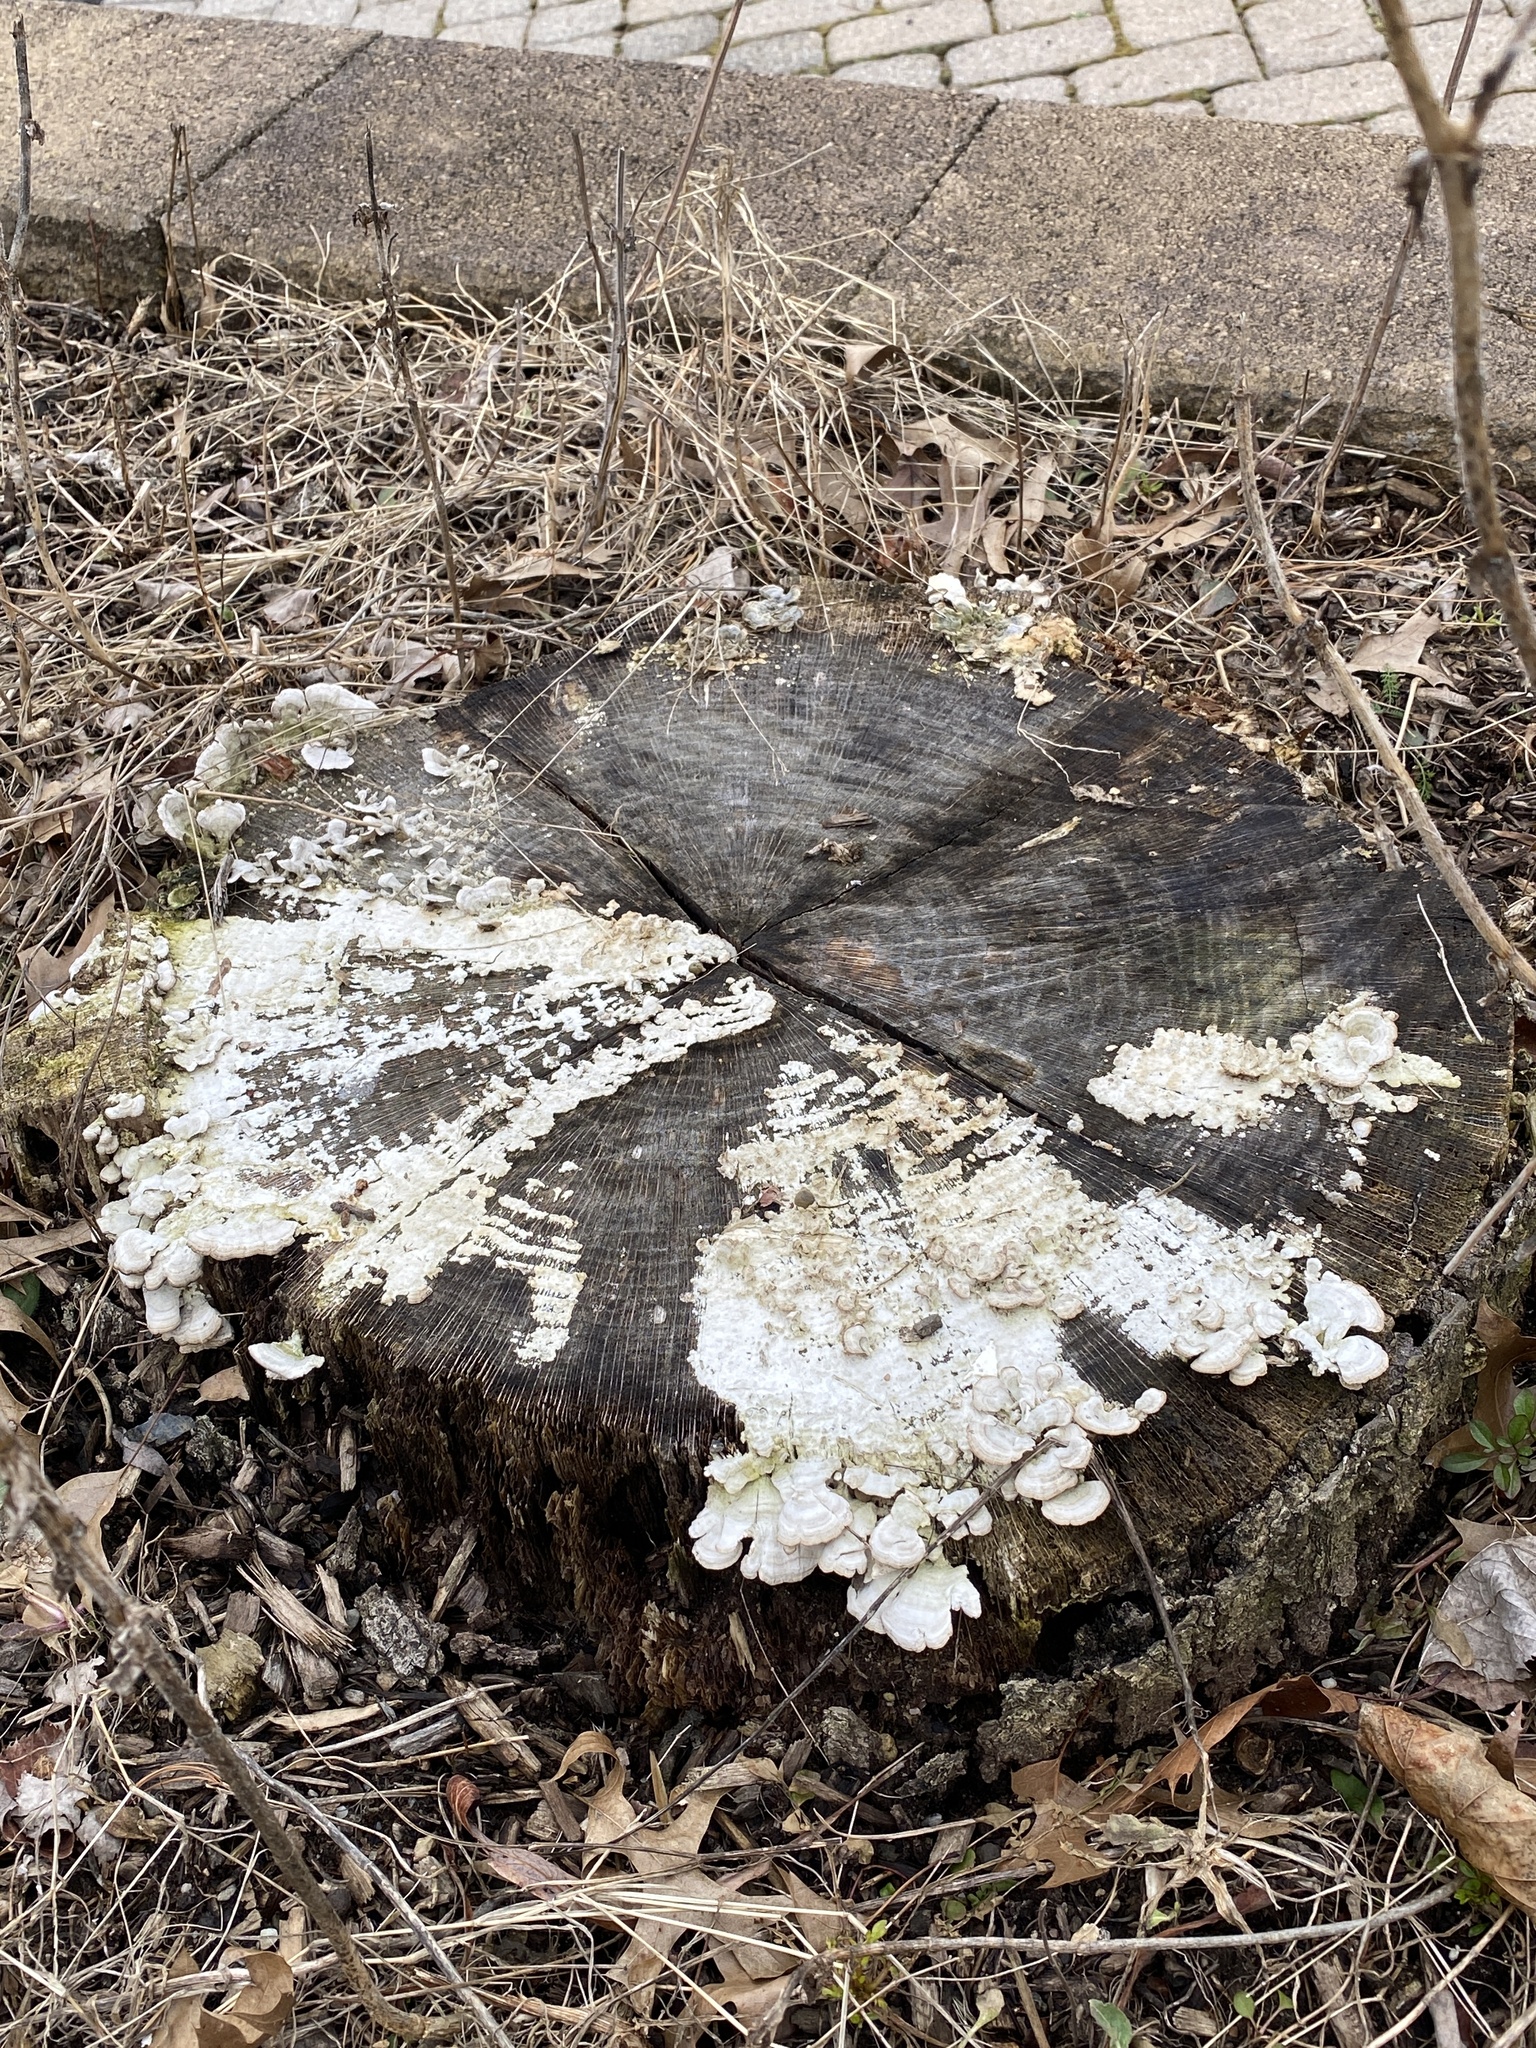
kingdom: Fungi
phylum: Basidiomycota
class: Agaricomycetes
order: Hymenochaetales
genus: Trichaptum
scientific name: Trichaptum biforme
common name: Violet-toothed polypore
